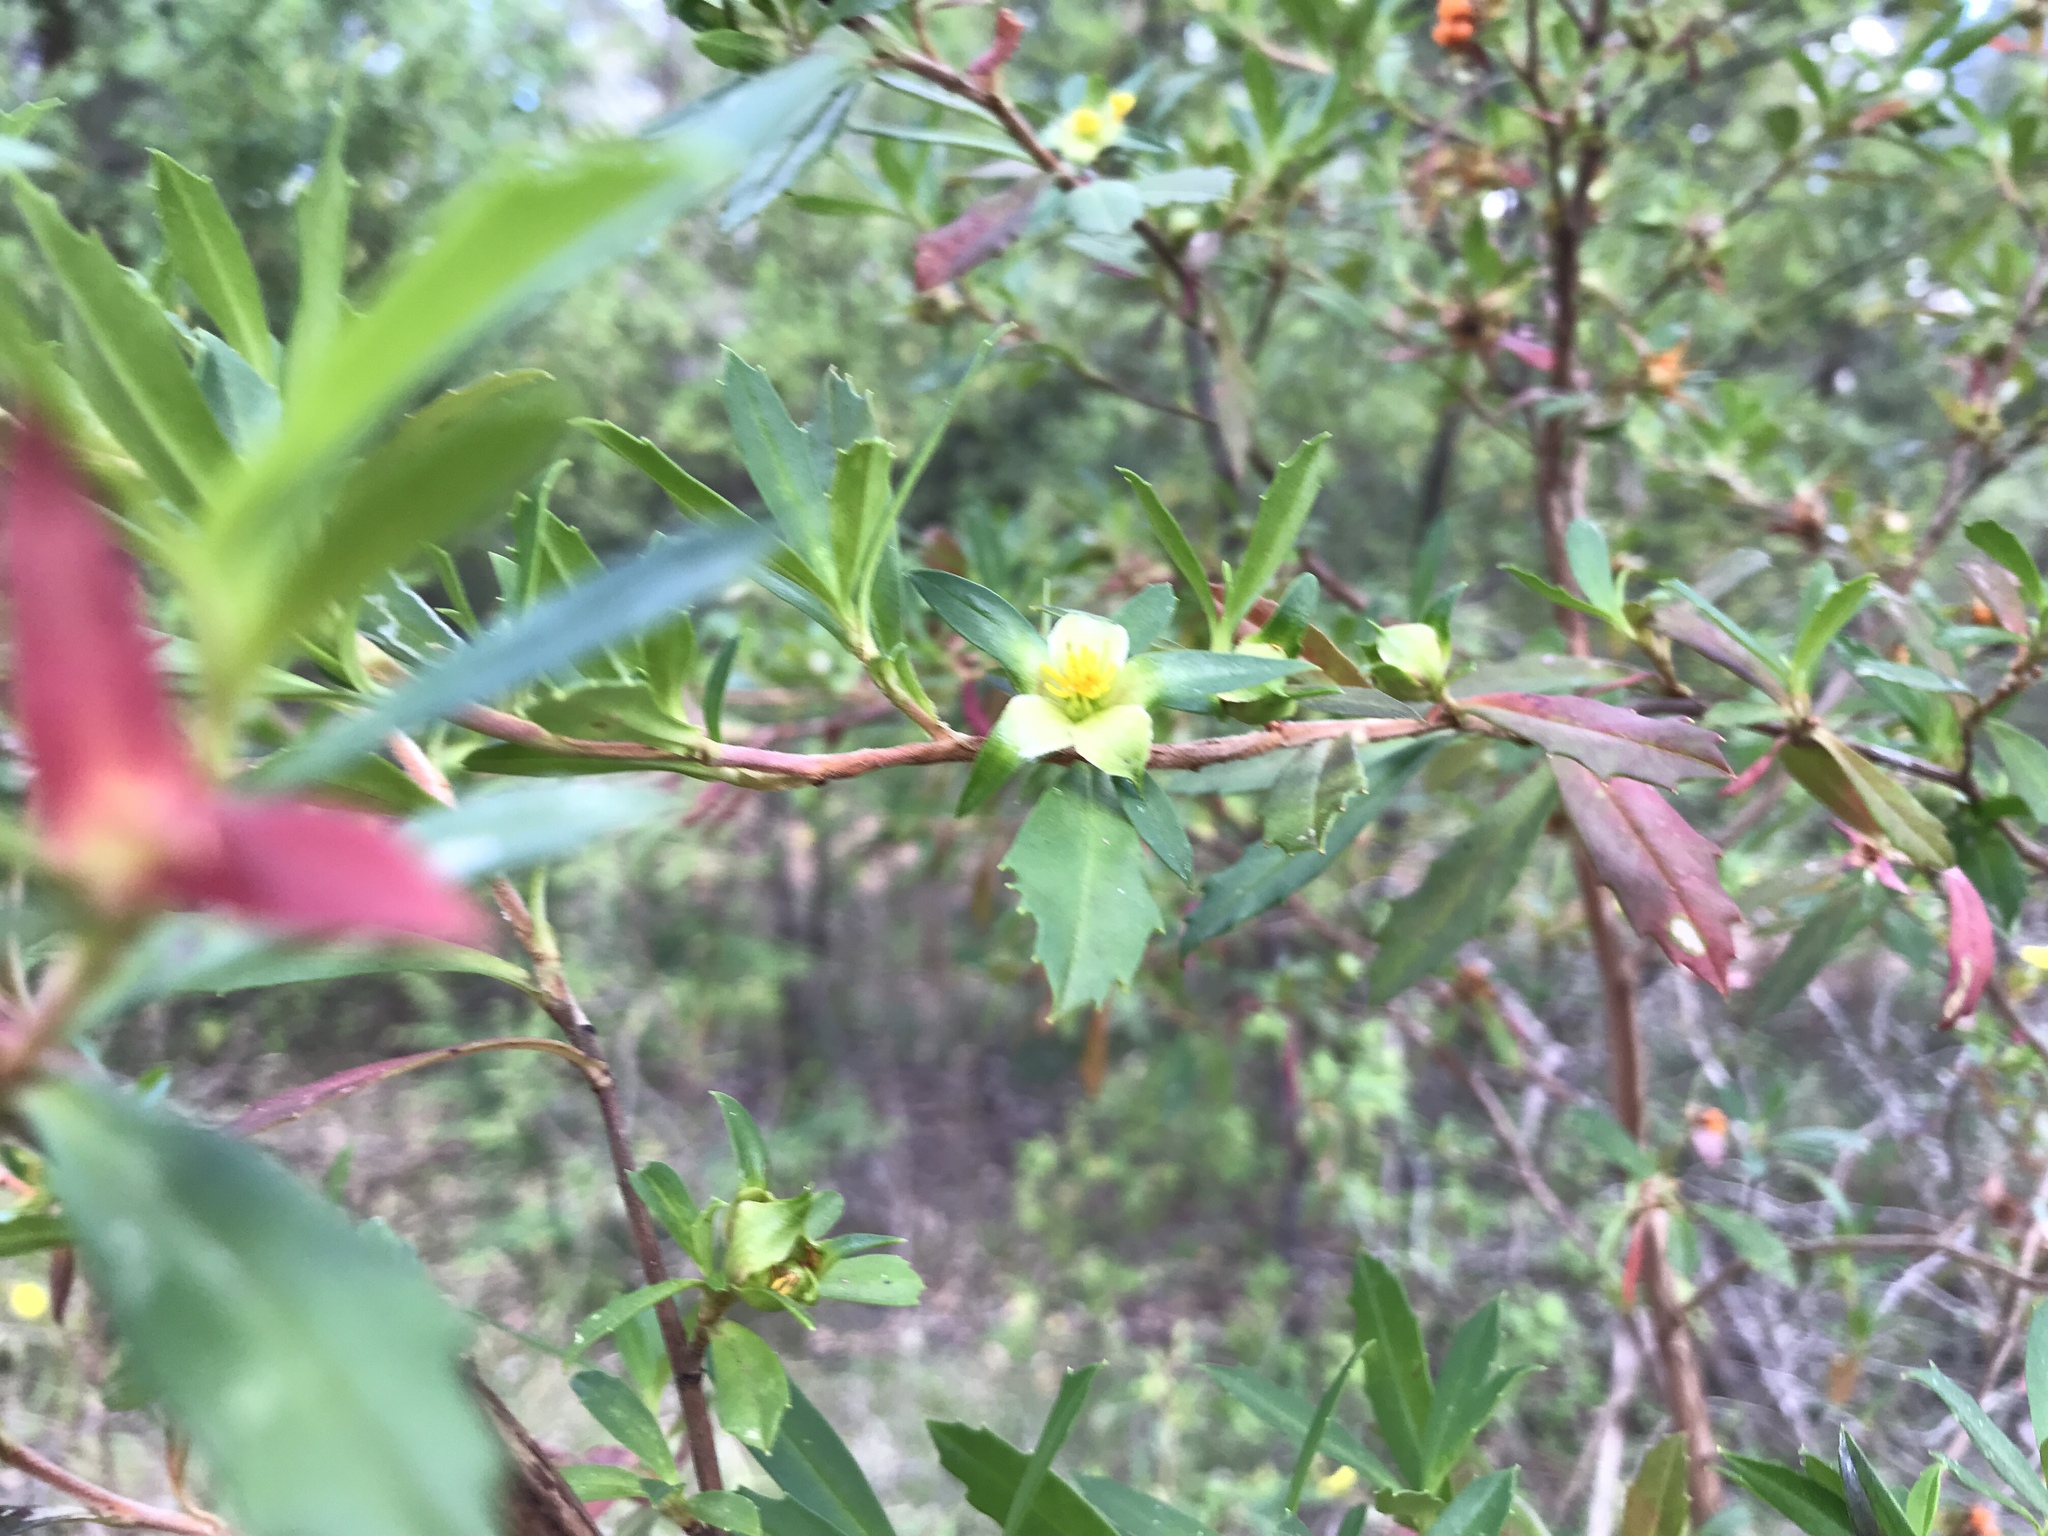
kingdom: Plantae
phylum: Tracheophyta
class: Magnoliopsida
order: Dilleniales
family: Dilleniaceae
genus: Hibbertia
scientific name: Hibbertia cuneiformis
